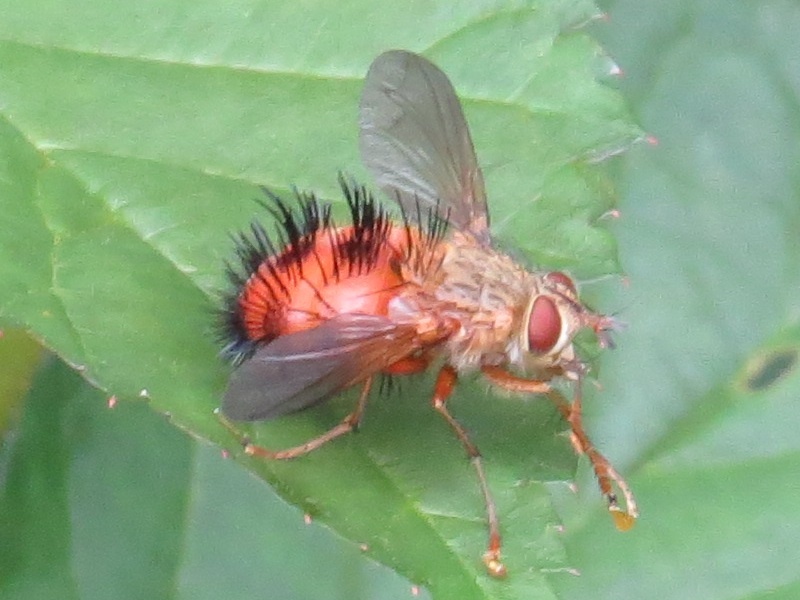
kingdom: Animalia
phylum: Arthropoda
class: Insecta
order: Diptera
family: Tachinidae
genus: Hystricia
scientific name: Hystricia abrupta
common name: Tomato bristle fly
